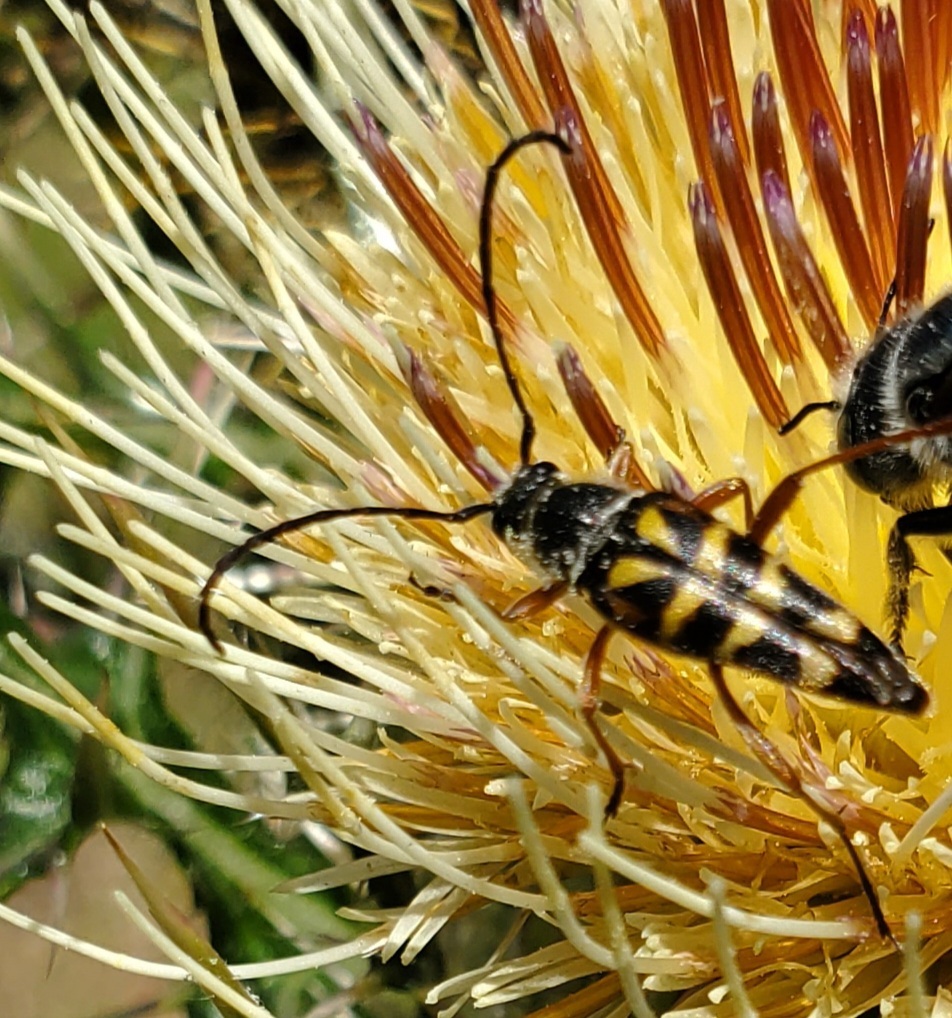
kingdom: Animalia
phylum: Arthropoda
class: Insecta
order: Coleoptera
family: Cerambycidae
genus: Typocerus
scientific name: Typocerus zebra
